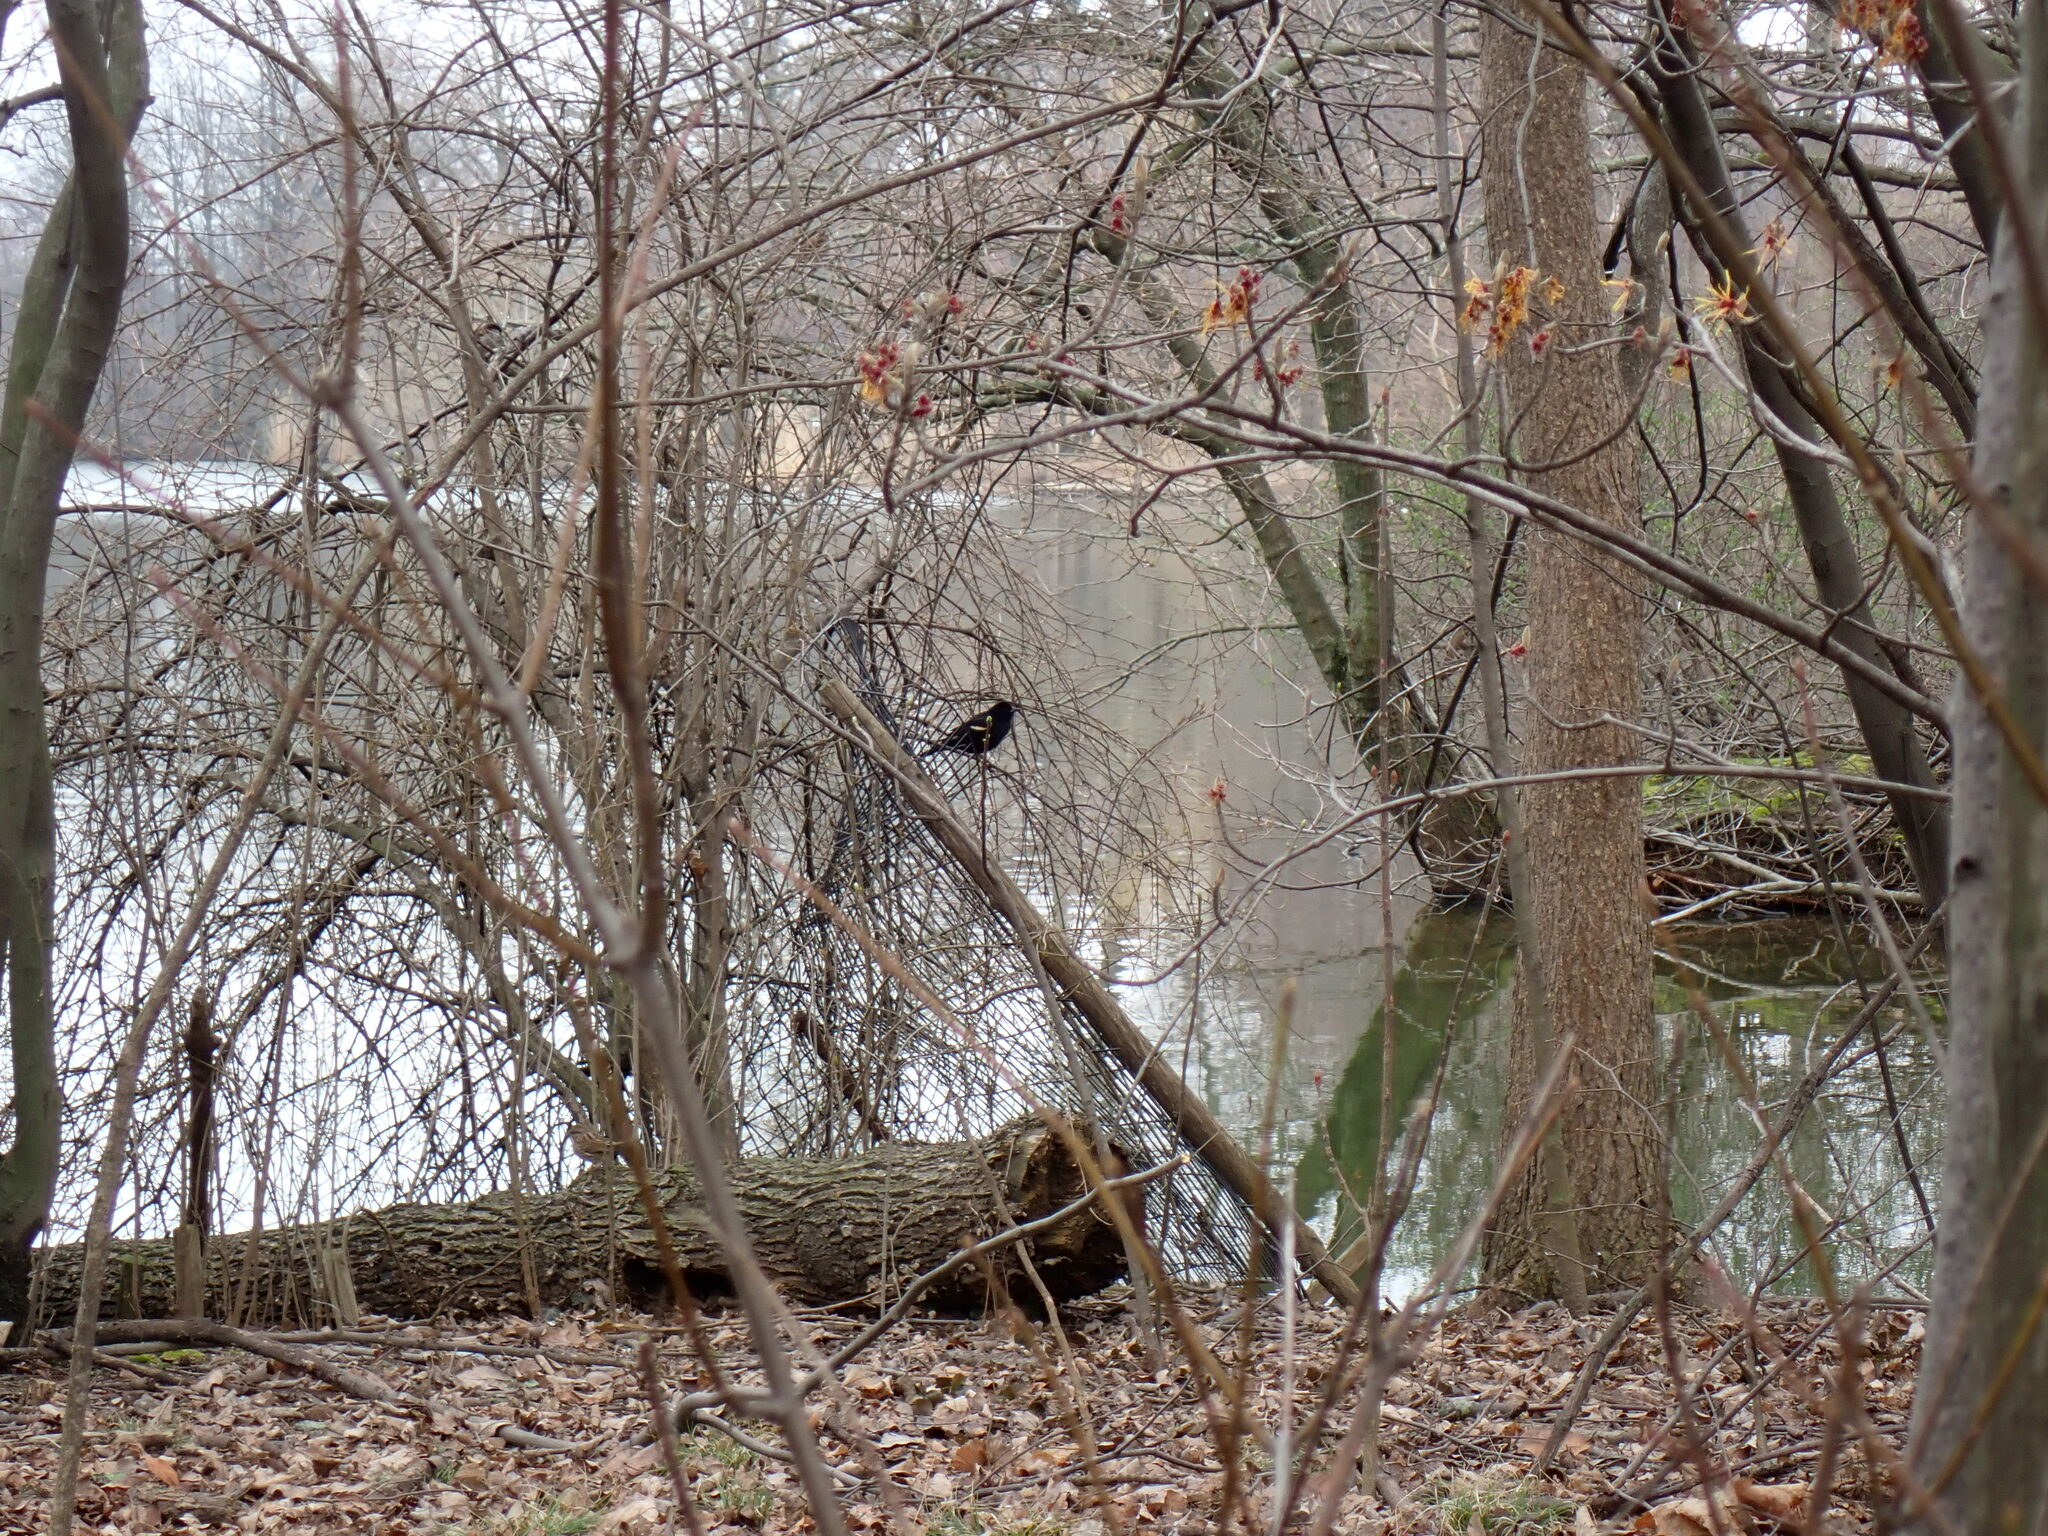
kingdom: Animalia
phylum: Chordata
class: Aves
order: Passeriformes
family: Icteridae
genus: Agelaius
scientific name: Agelaius phoeniceus
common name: Red-winged blackbird
